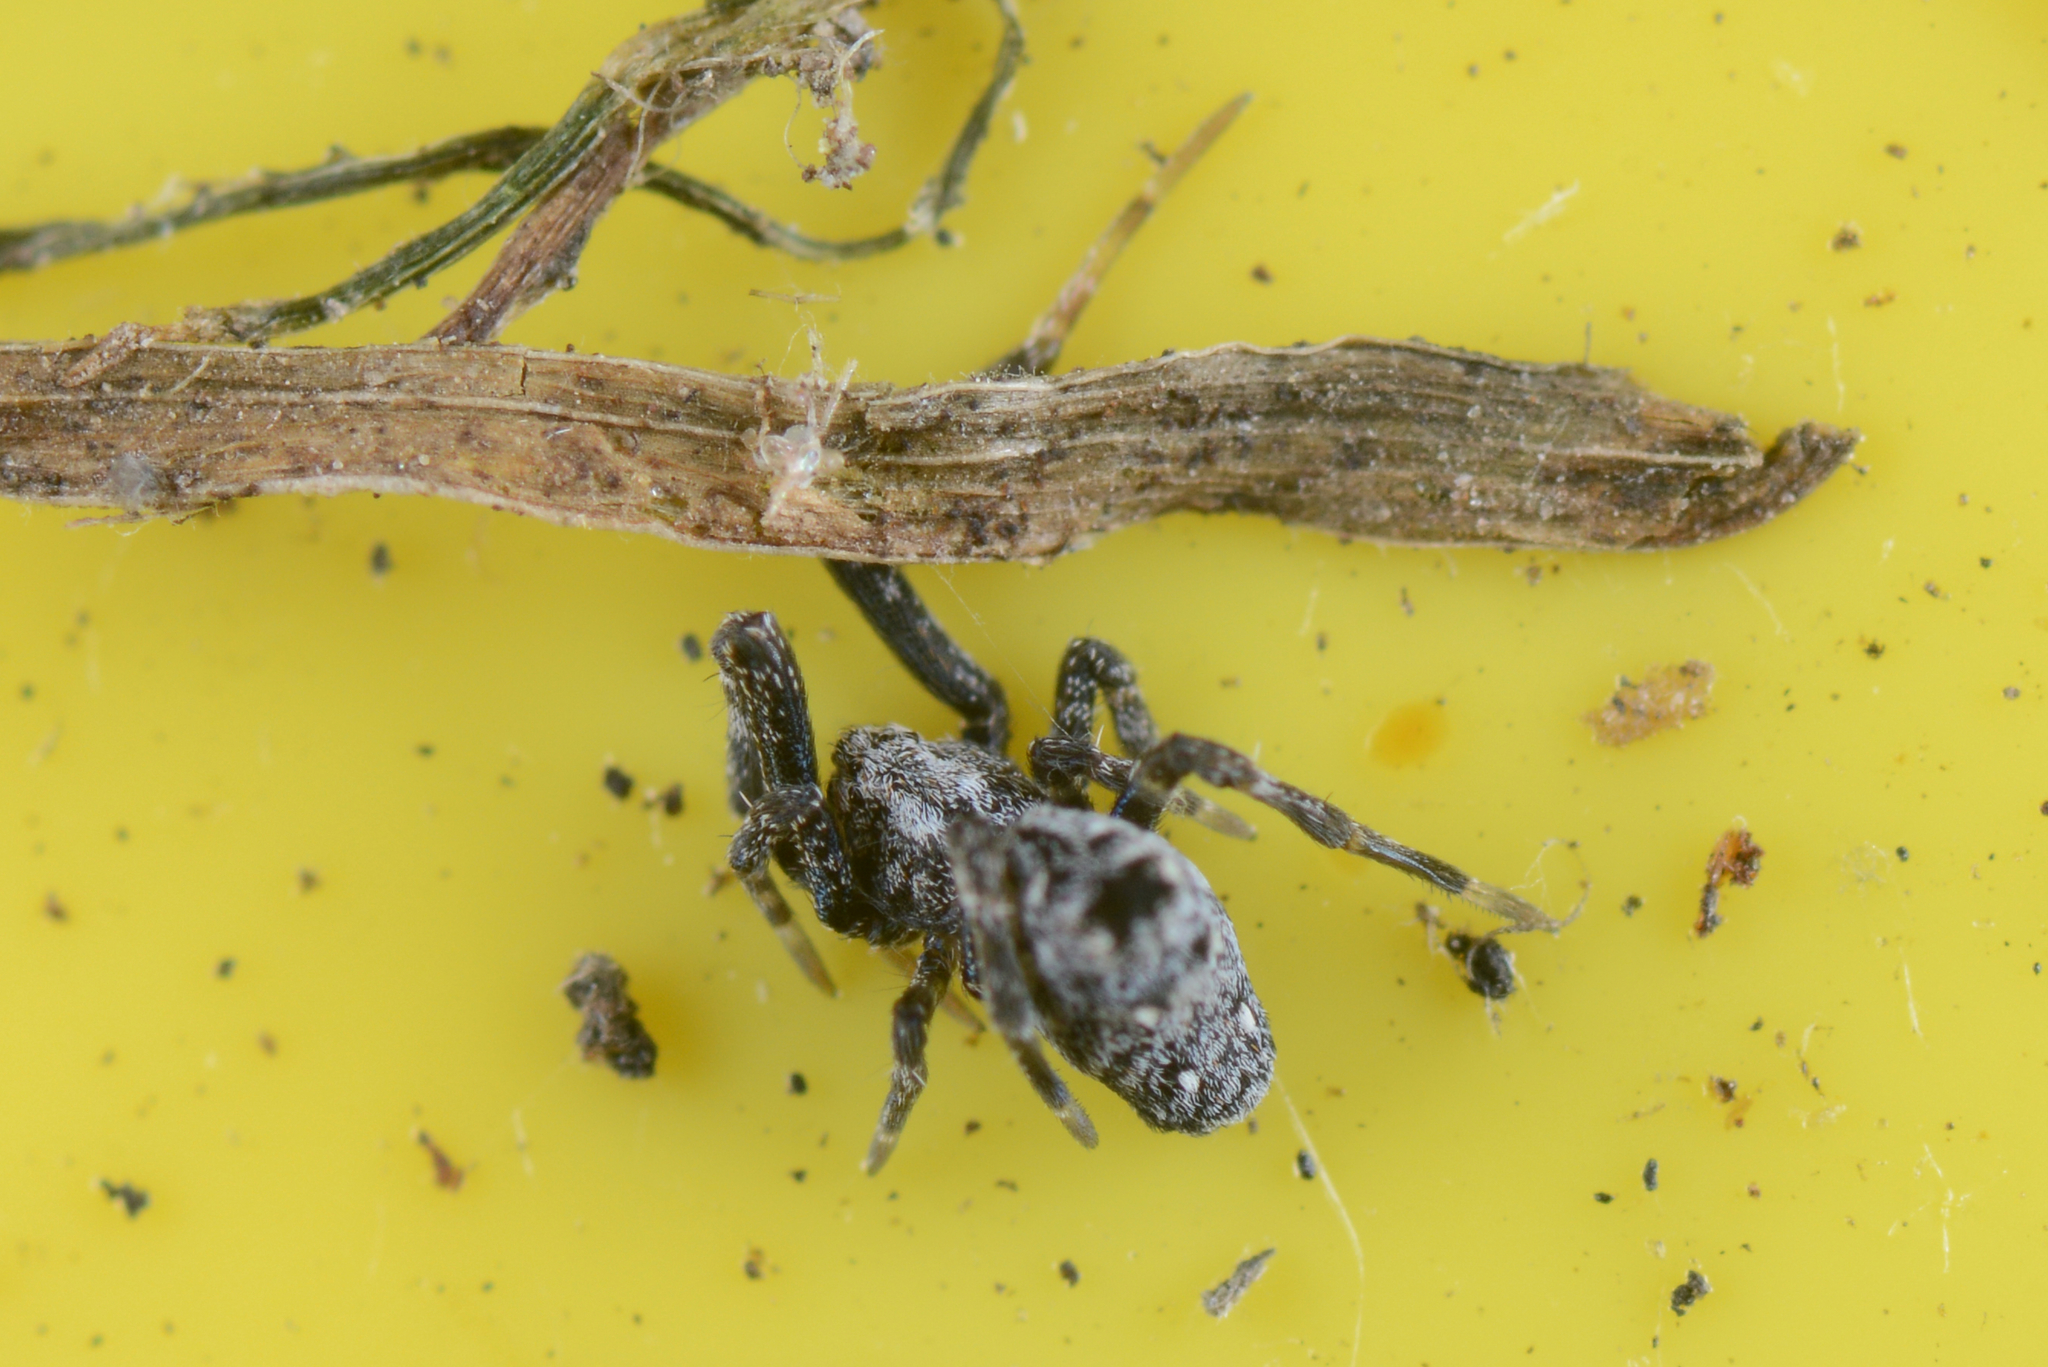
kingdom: Animalia
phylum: Arthropoda
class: Arachnida
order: Araneae
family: Uloboridae
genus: Philoponella
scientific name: Philoponella congregabilis
